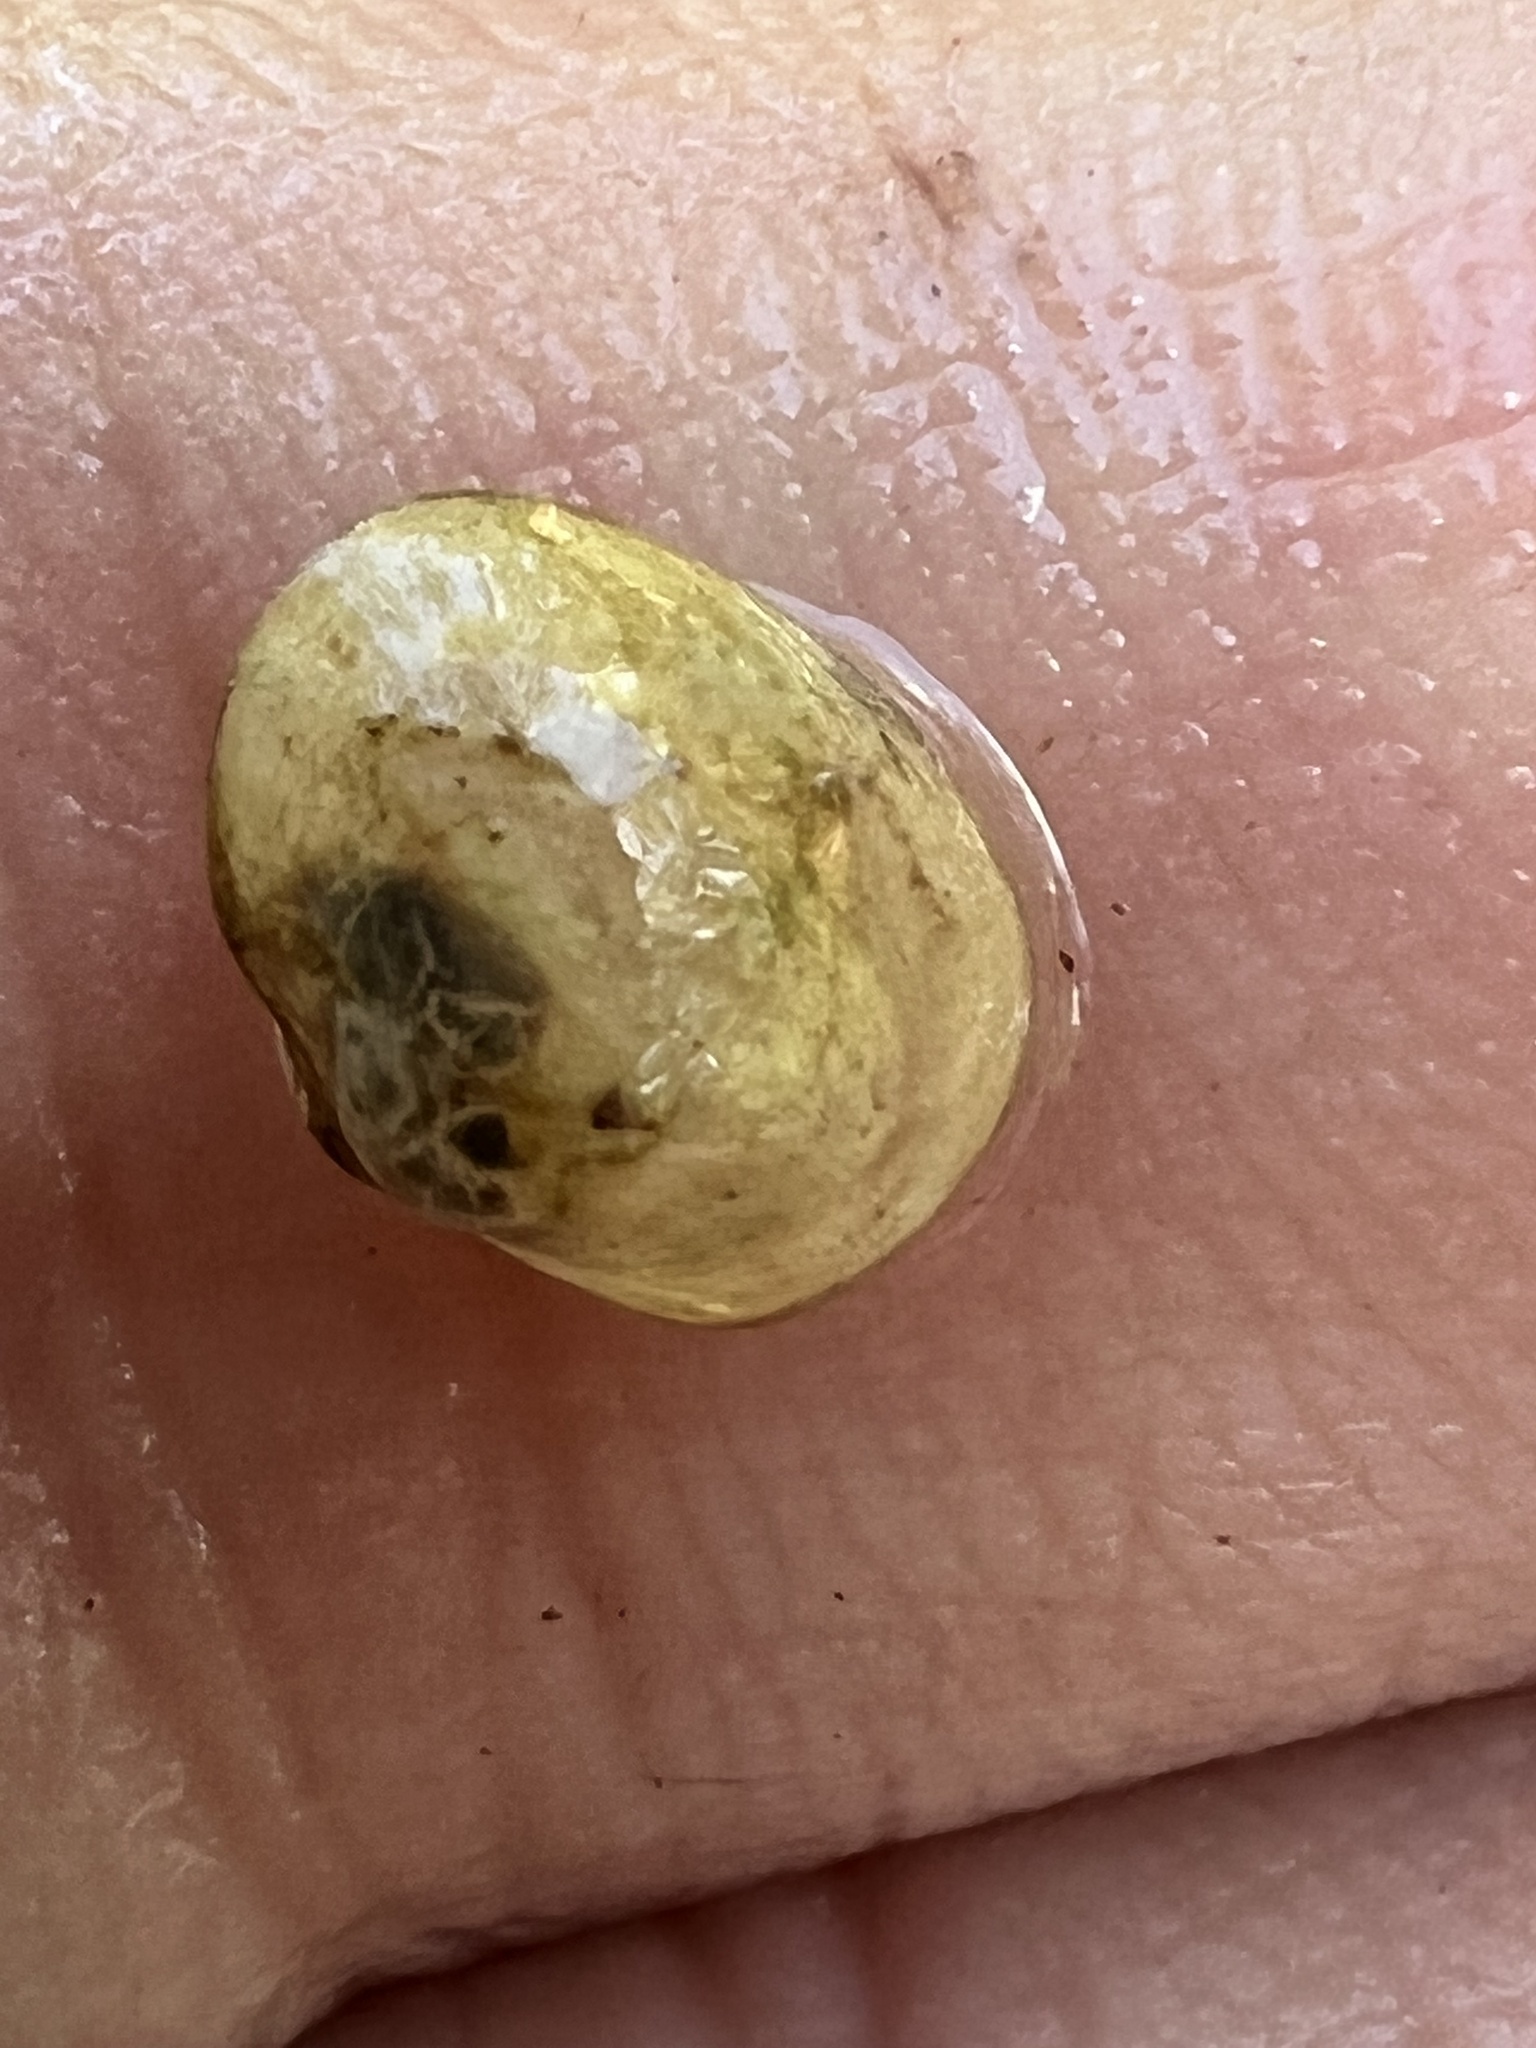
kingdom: Animalia
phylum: Mollusca
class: Bivalvia
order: Sphaeriida
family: Sphaeriidae
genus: Musculium
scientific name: Musculium transversum
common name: Oblong orb mussel
